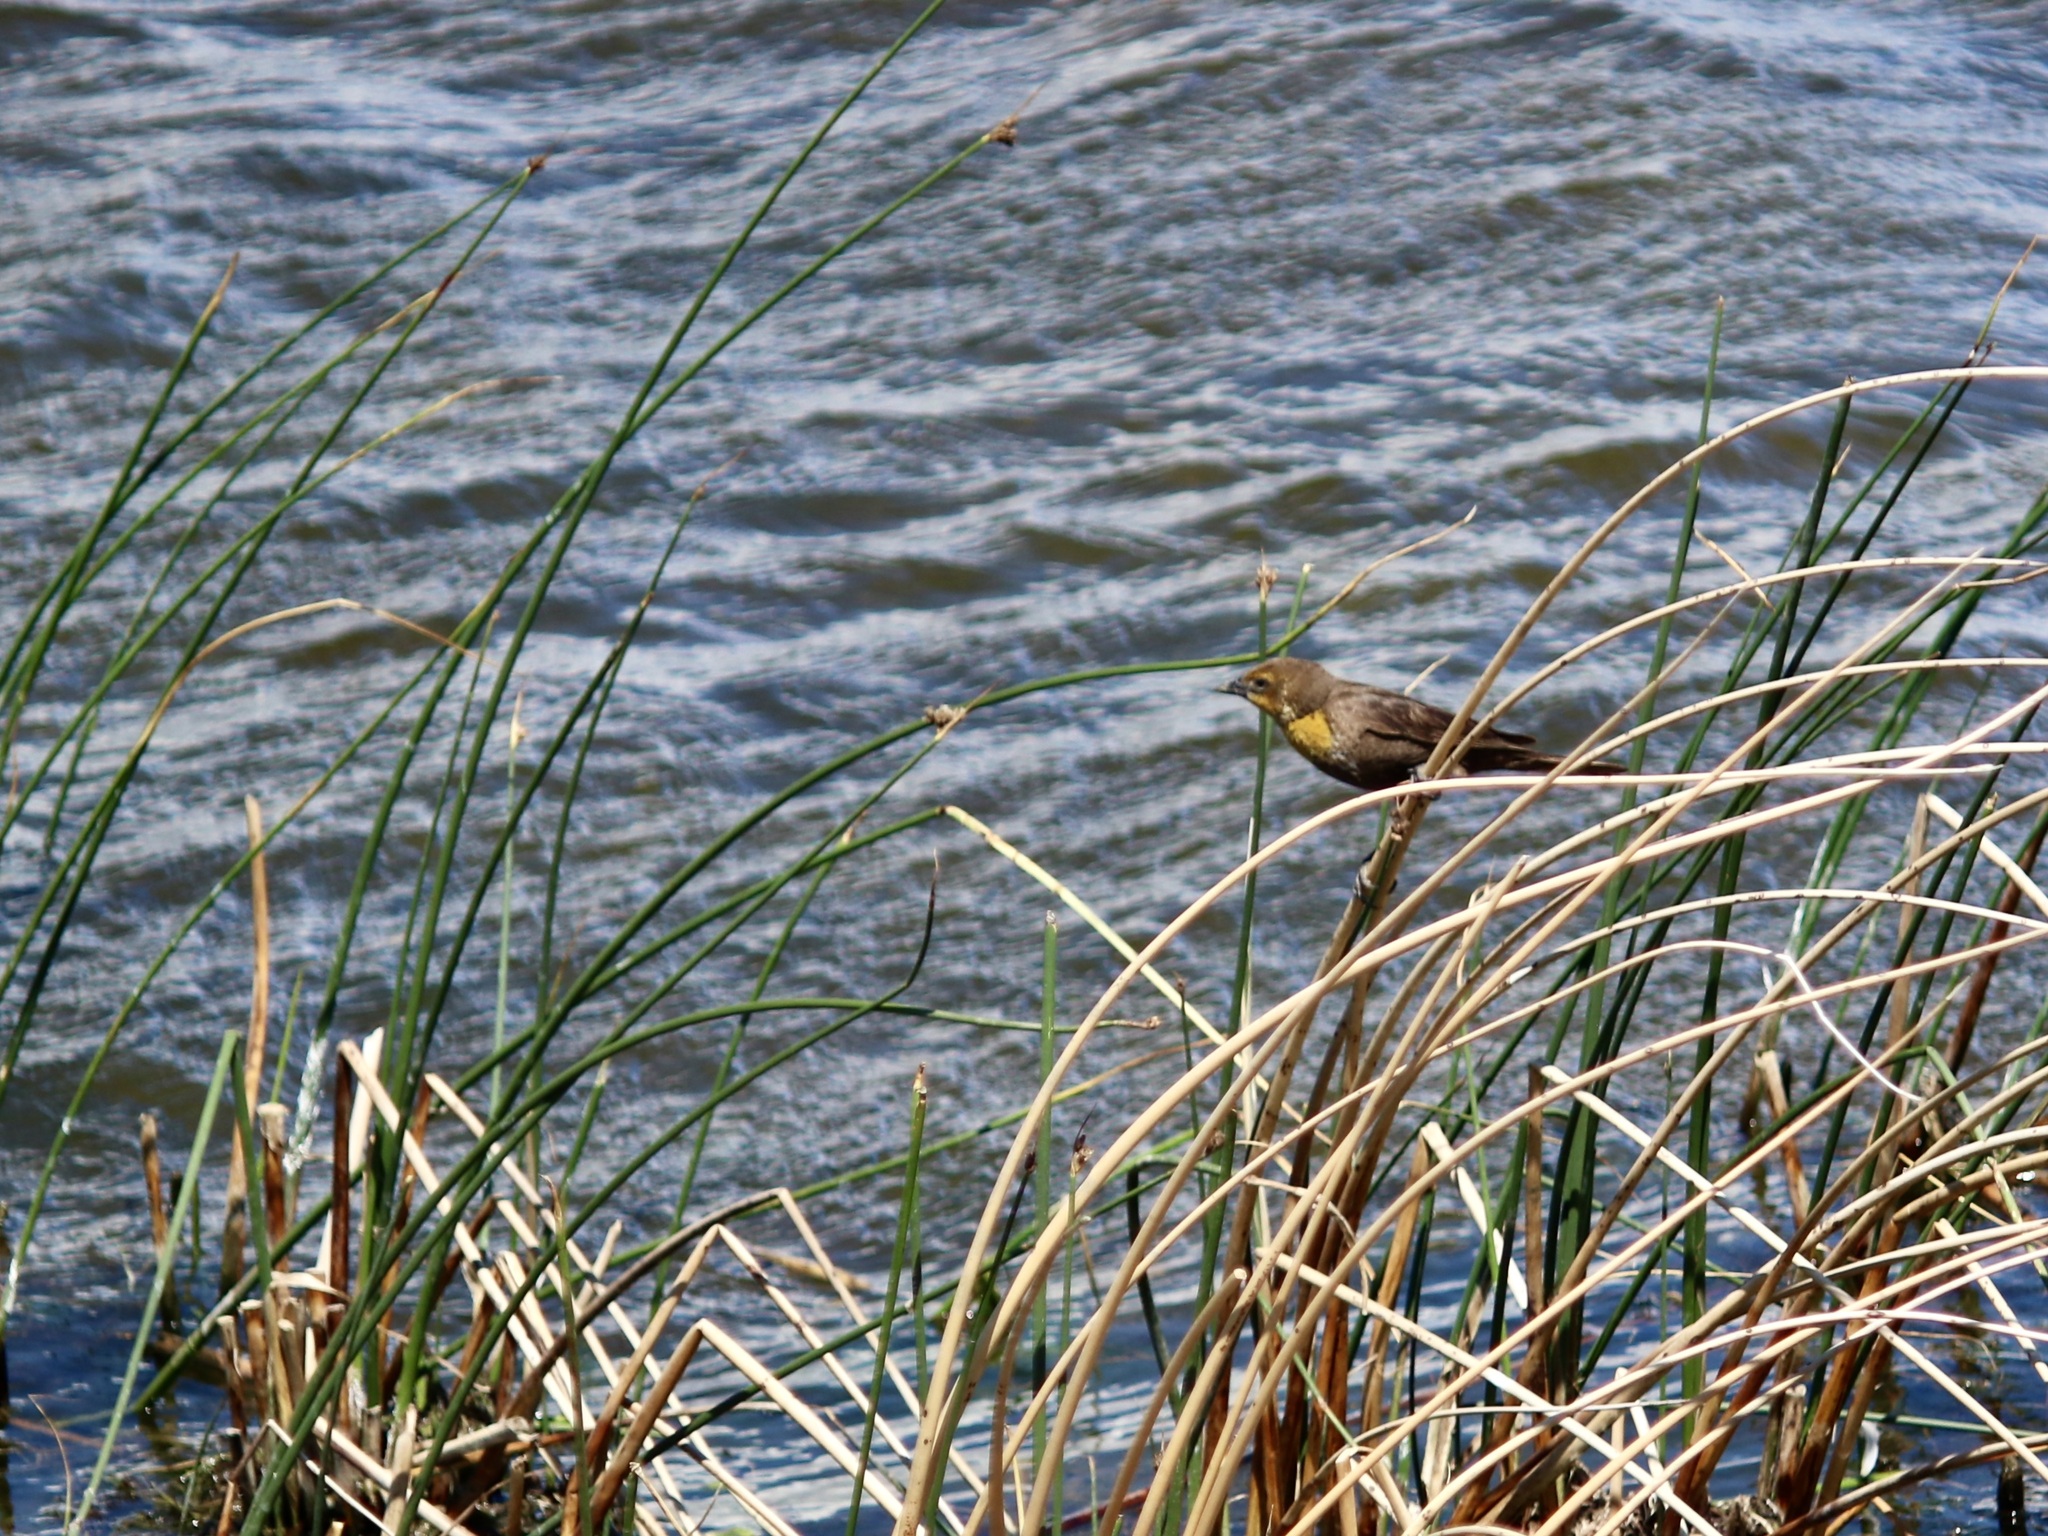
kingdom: Animalia
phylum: Chordata
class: Aves
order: Passeriformes
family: Icteridae
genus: Xanthocephalus
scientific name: Xanthocephalus xanthocephalus
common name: Yellow-headed blackbird
